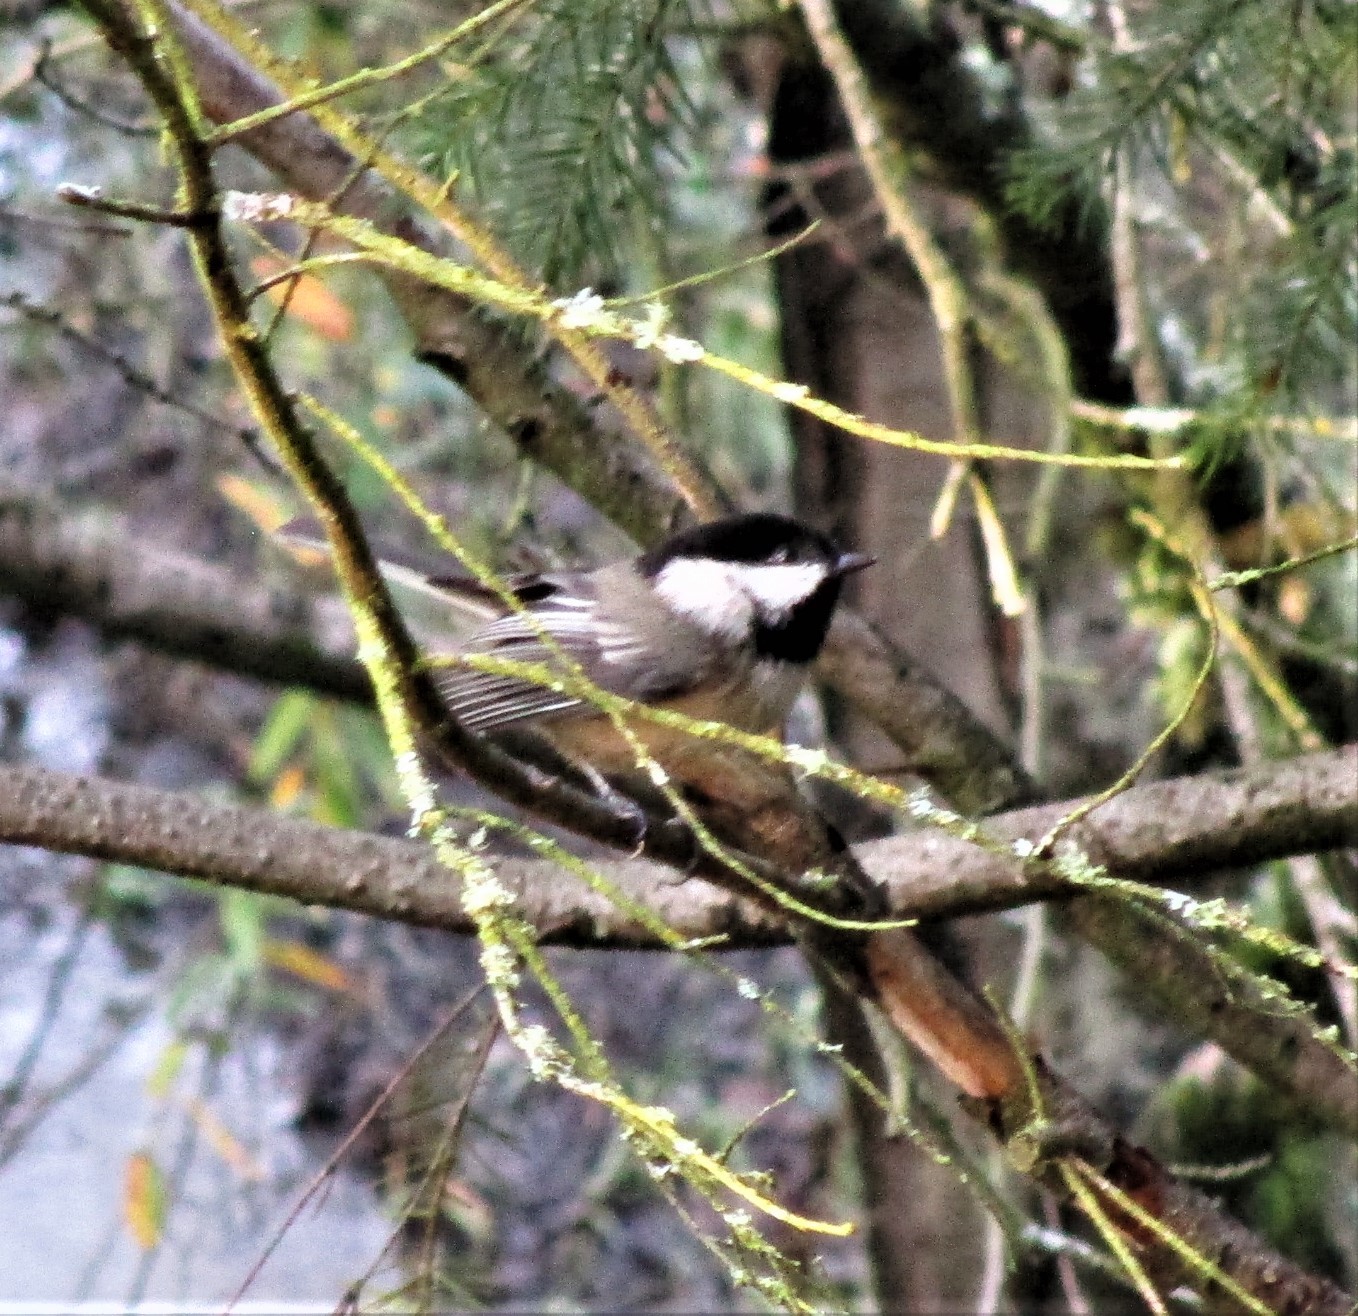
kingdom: Animalia
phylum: Chordata
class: Aves
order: Passeriformes
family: Paridae
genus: Poecile
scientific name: Poecile atricapillus
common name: Black-capped chickadee
